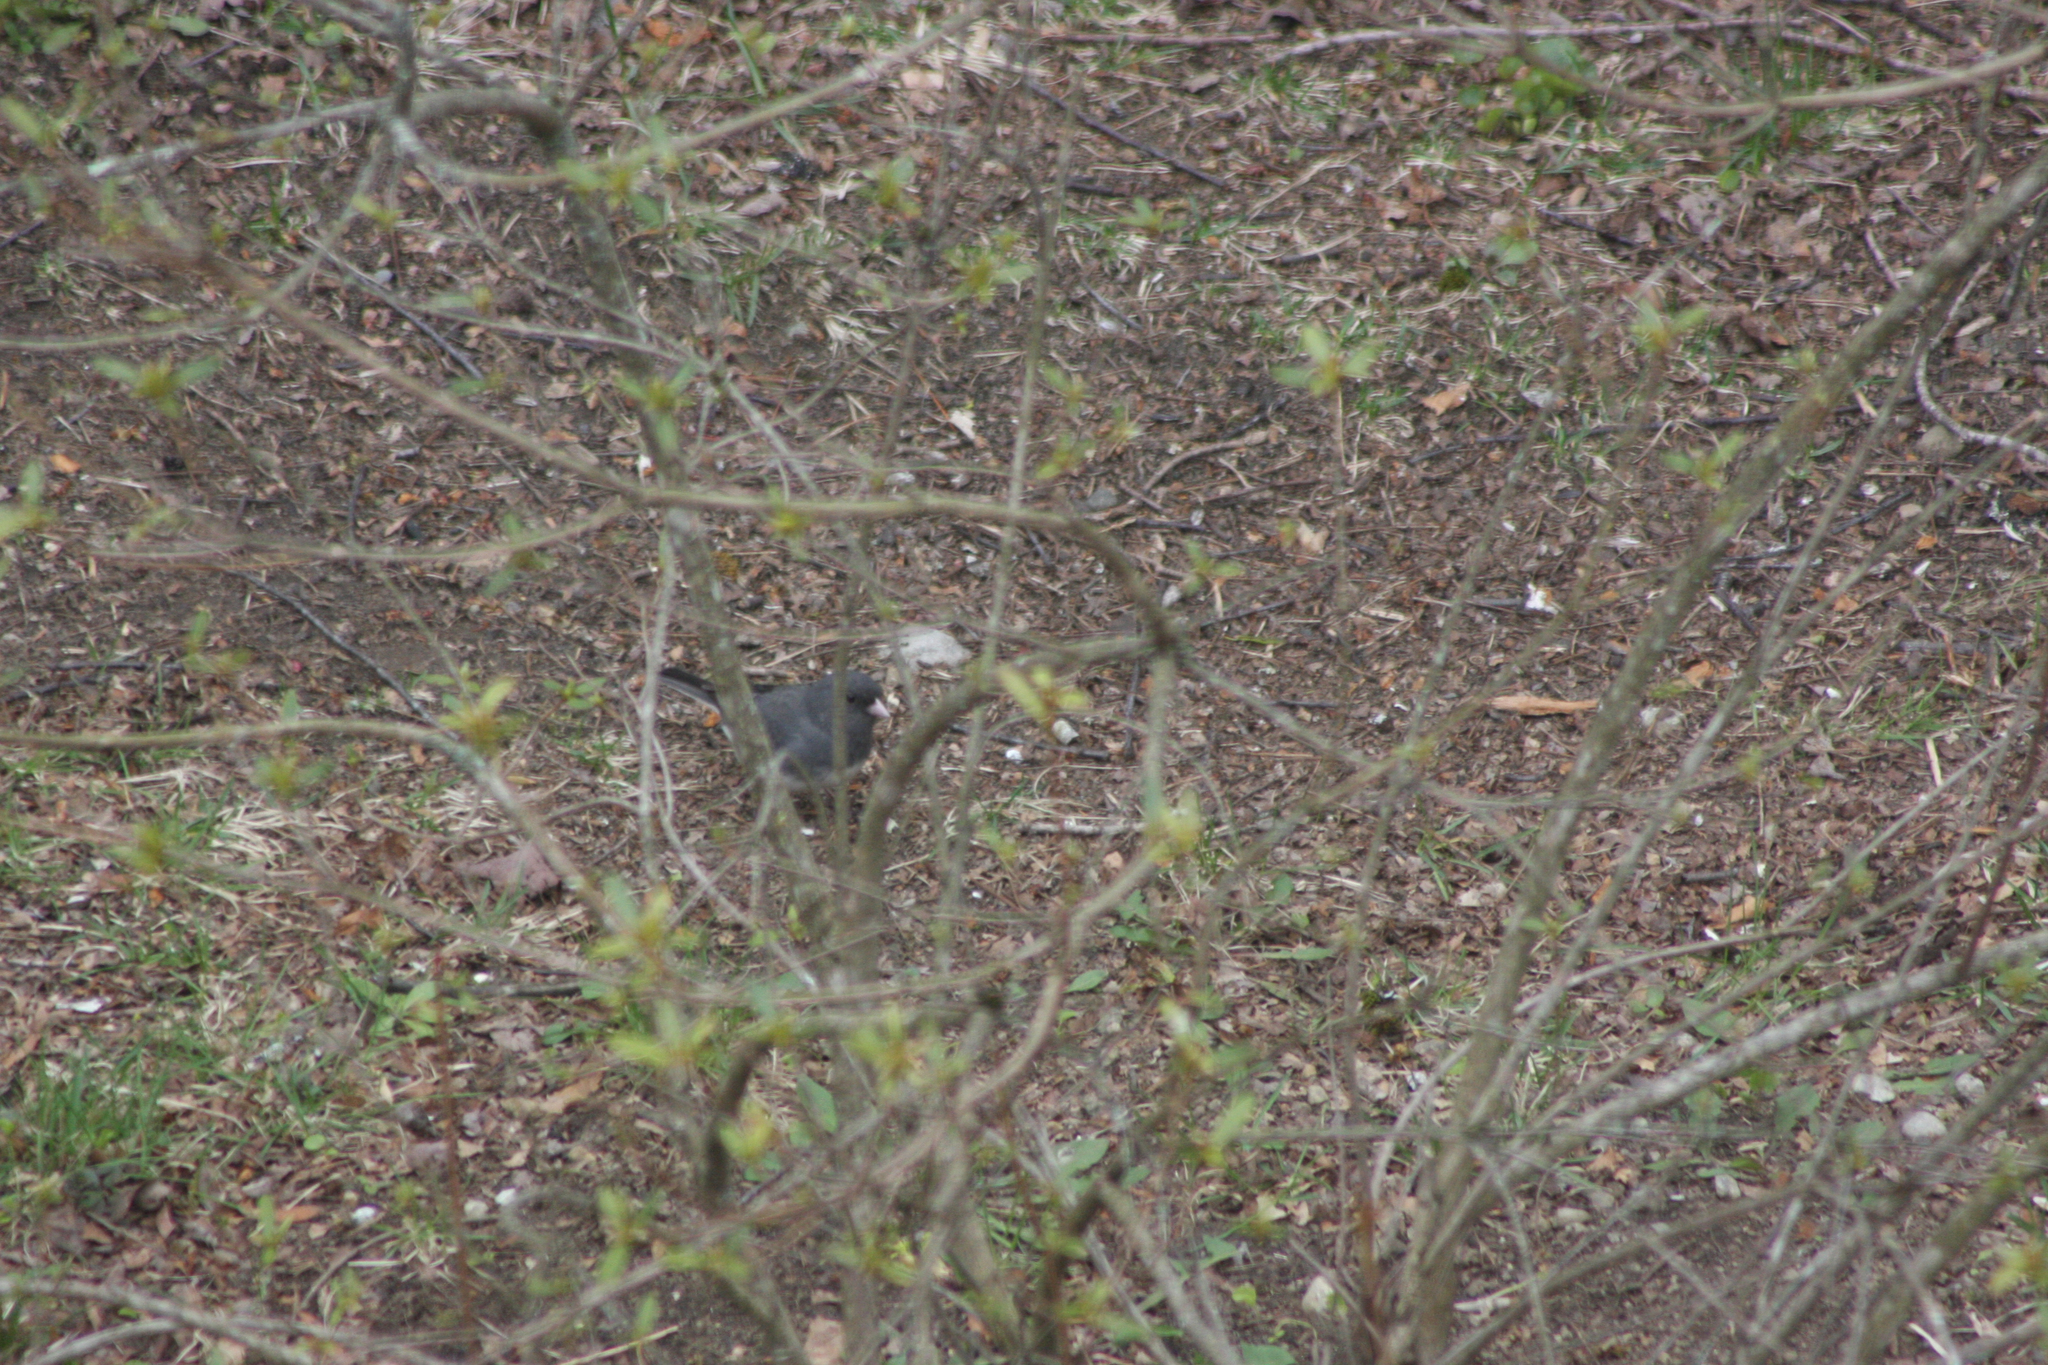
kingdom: Animalia
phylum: Chordata
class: Aves
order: Passeriformes
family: Passerellidae
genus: Junco
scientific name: Junco hyemalis
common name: Dark-eyed junco
